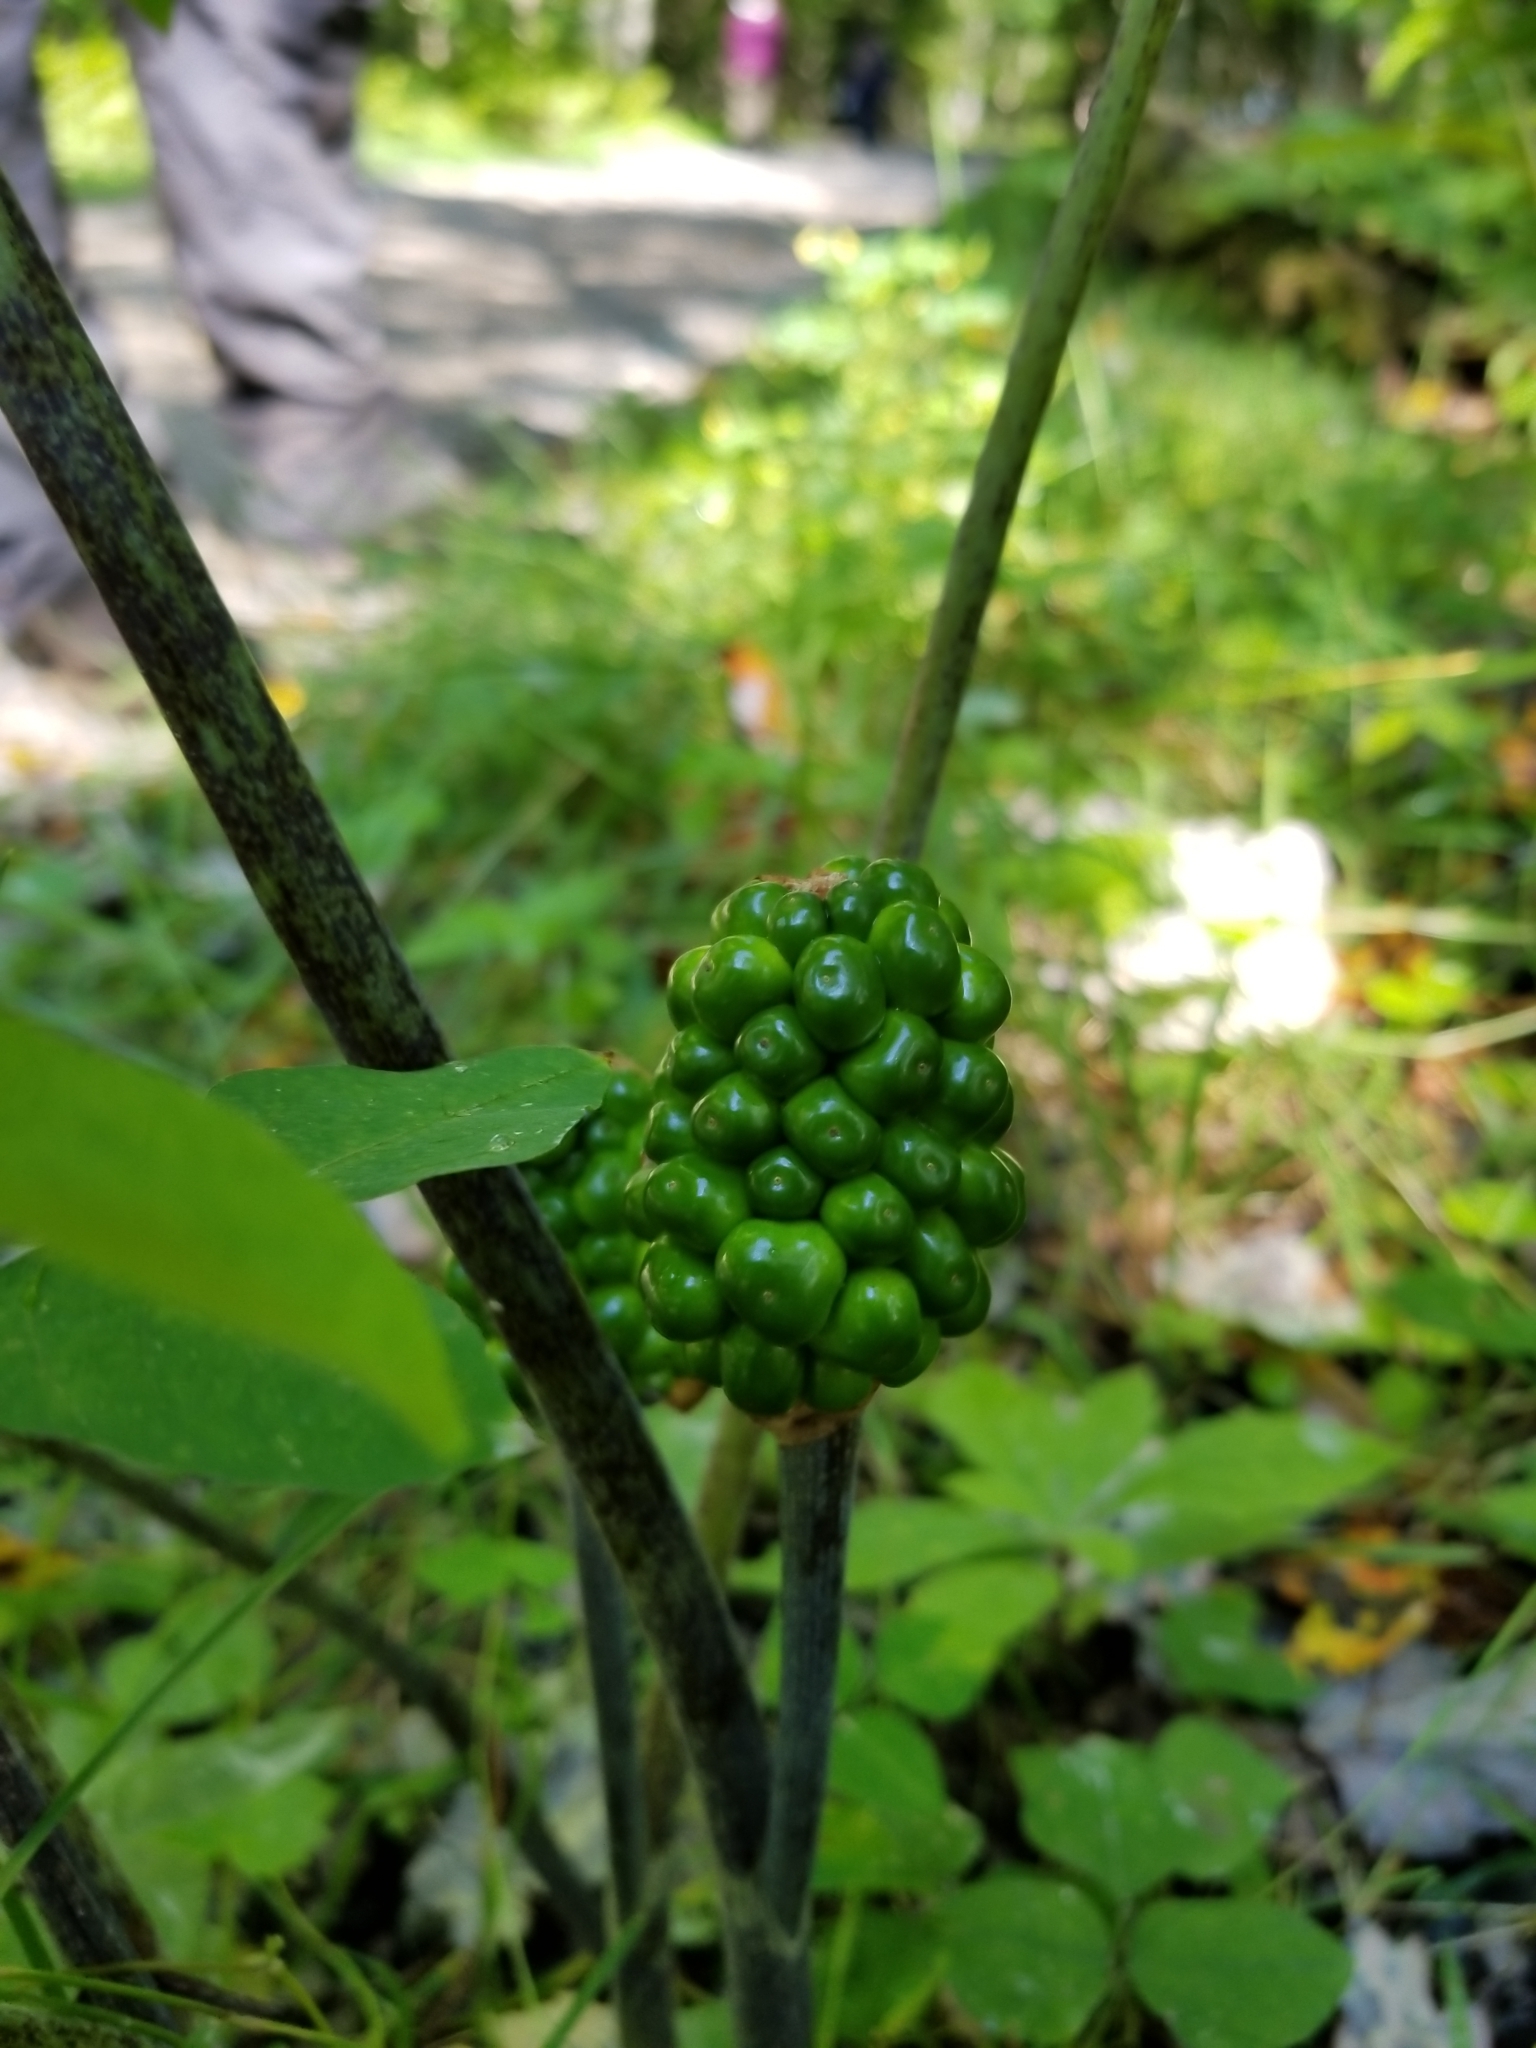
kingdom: Plantae
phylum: Tracheophyta
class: Liliopsida
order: Alismatales
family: Araceae
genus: Arisaema
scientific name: Arisaema triphyllum
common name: Jack-in-the-pulpit
